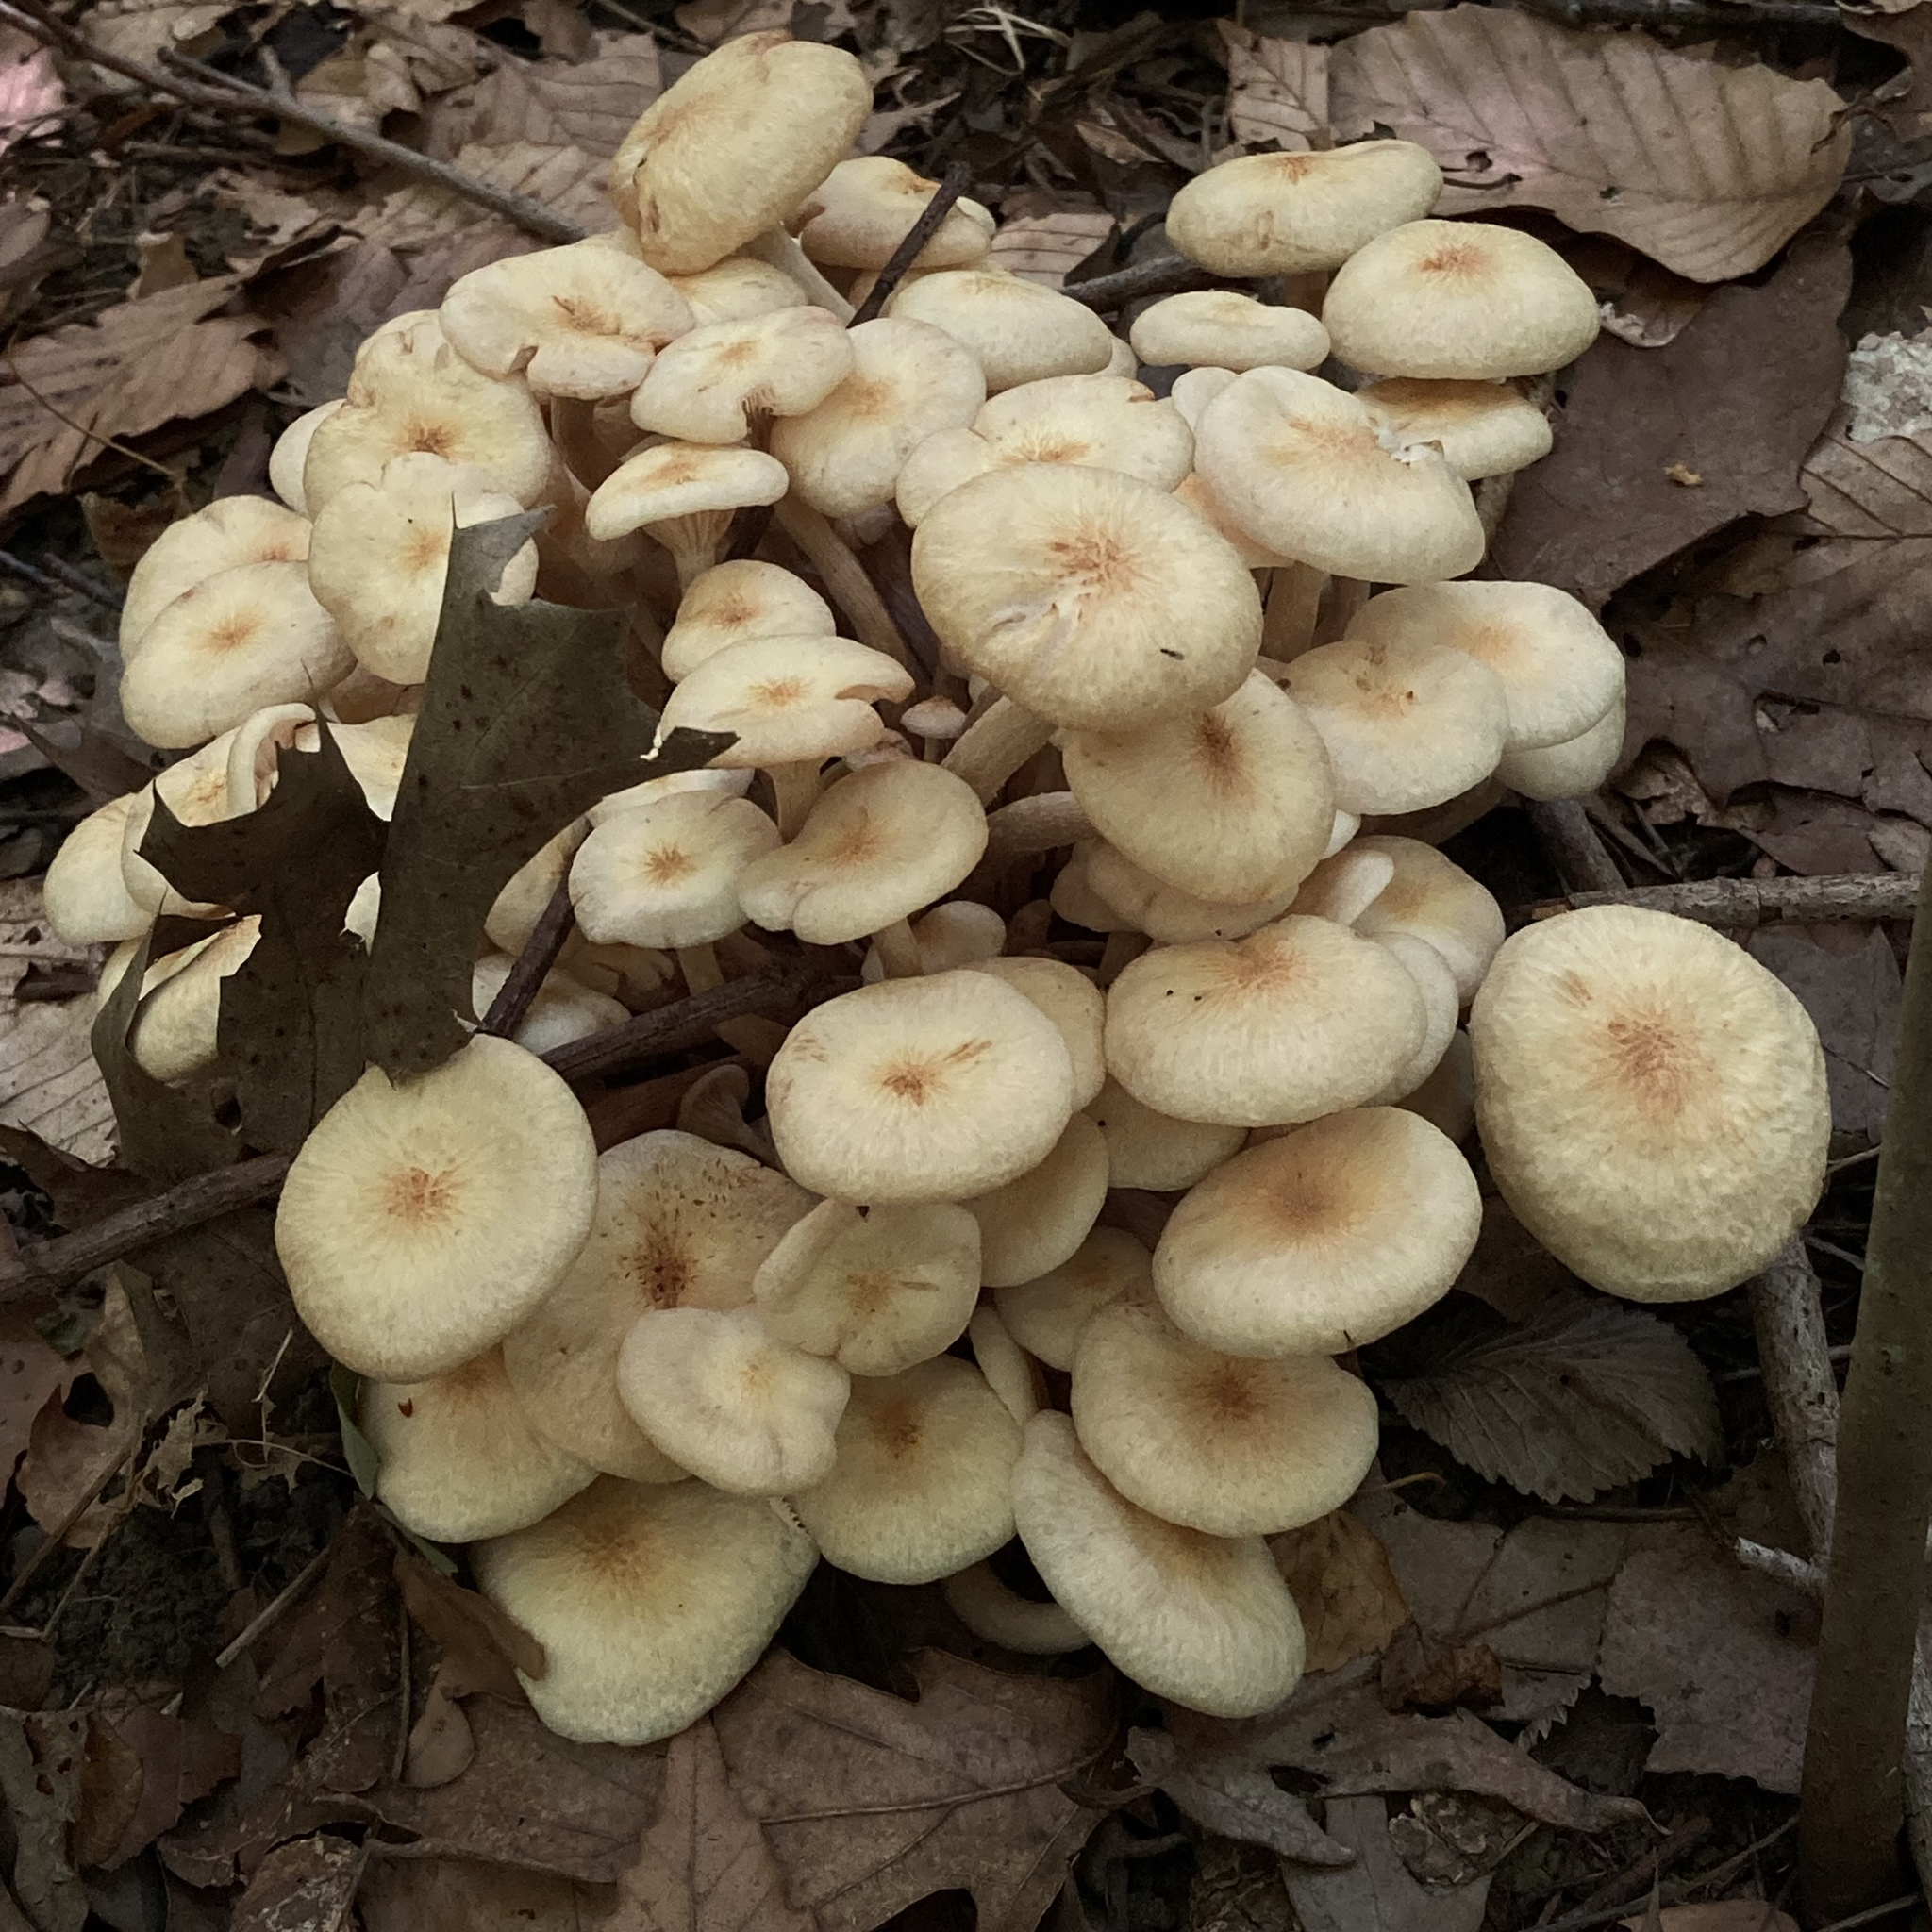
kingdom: Fungi
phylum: Basidiomycota
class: Agaricomycetes
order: Agaricales
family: Physalacriaceae
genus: Desarmillaria
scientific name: Desarmillaria caespitosa
